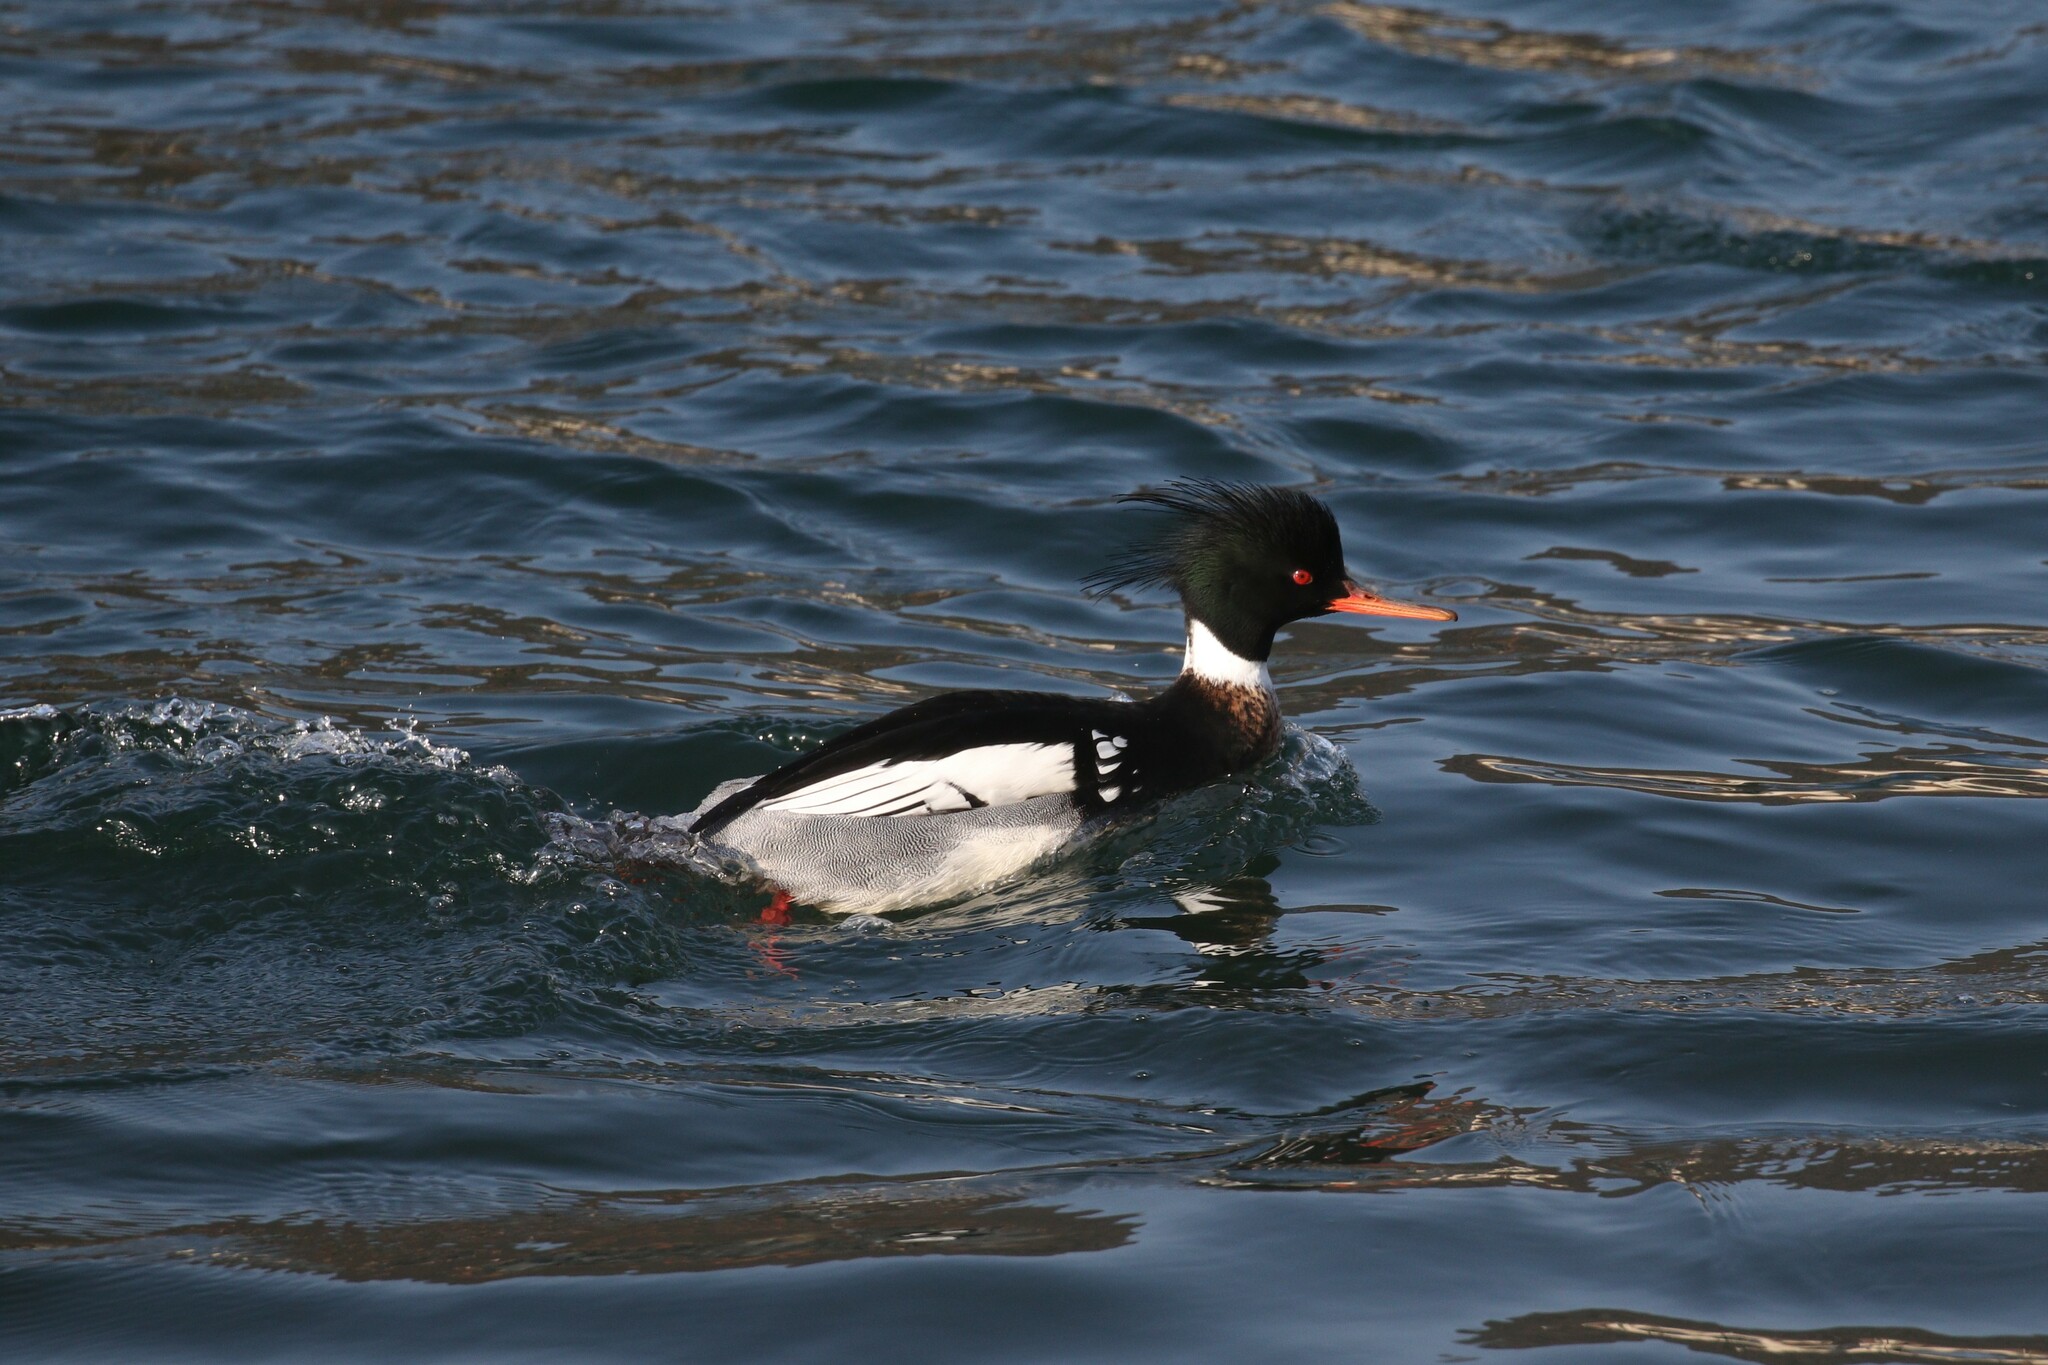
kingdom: Animalia
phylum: Chordata
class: Aves
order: Anseriformes
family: Anatidae
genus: Mergus
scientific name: Mergus serrator
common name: Red-breasted merganser
